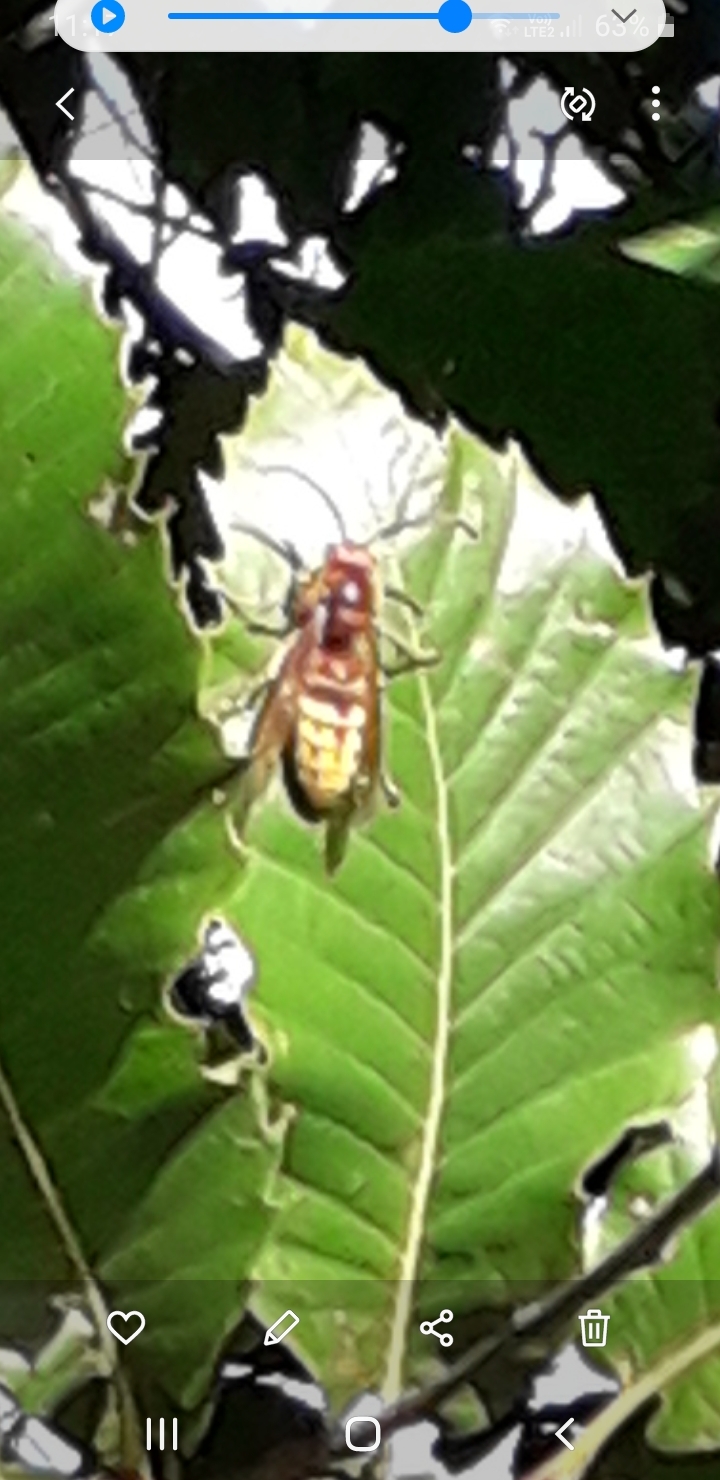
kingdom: Animalia
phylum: Arthropoda
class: Insecta
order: Hymenoptera
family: Vespidae
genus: Vespa
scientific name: Vespa crabro
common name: Hornet
